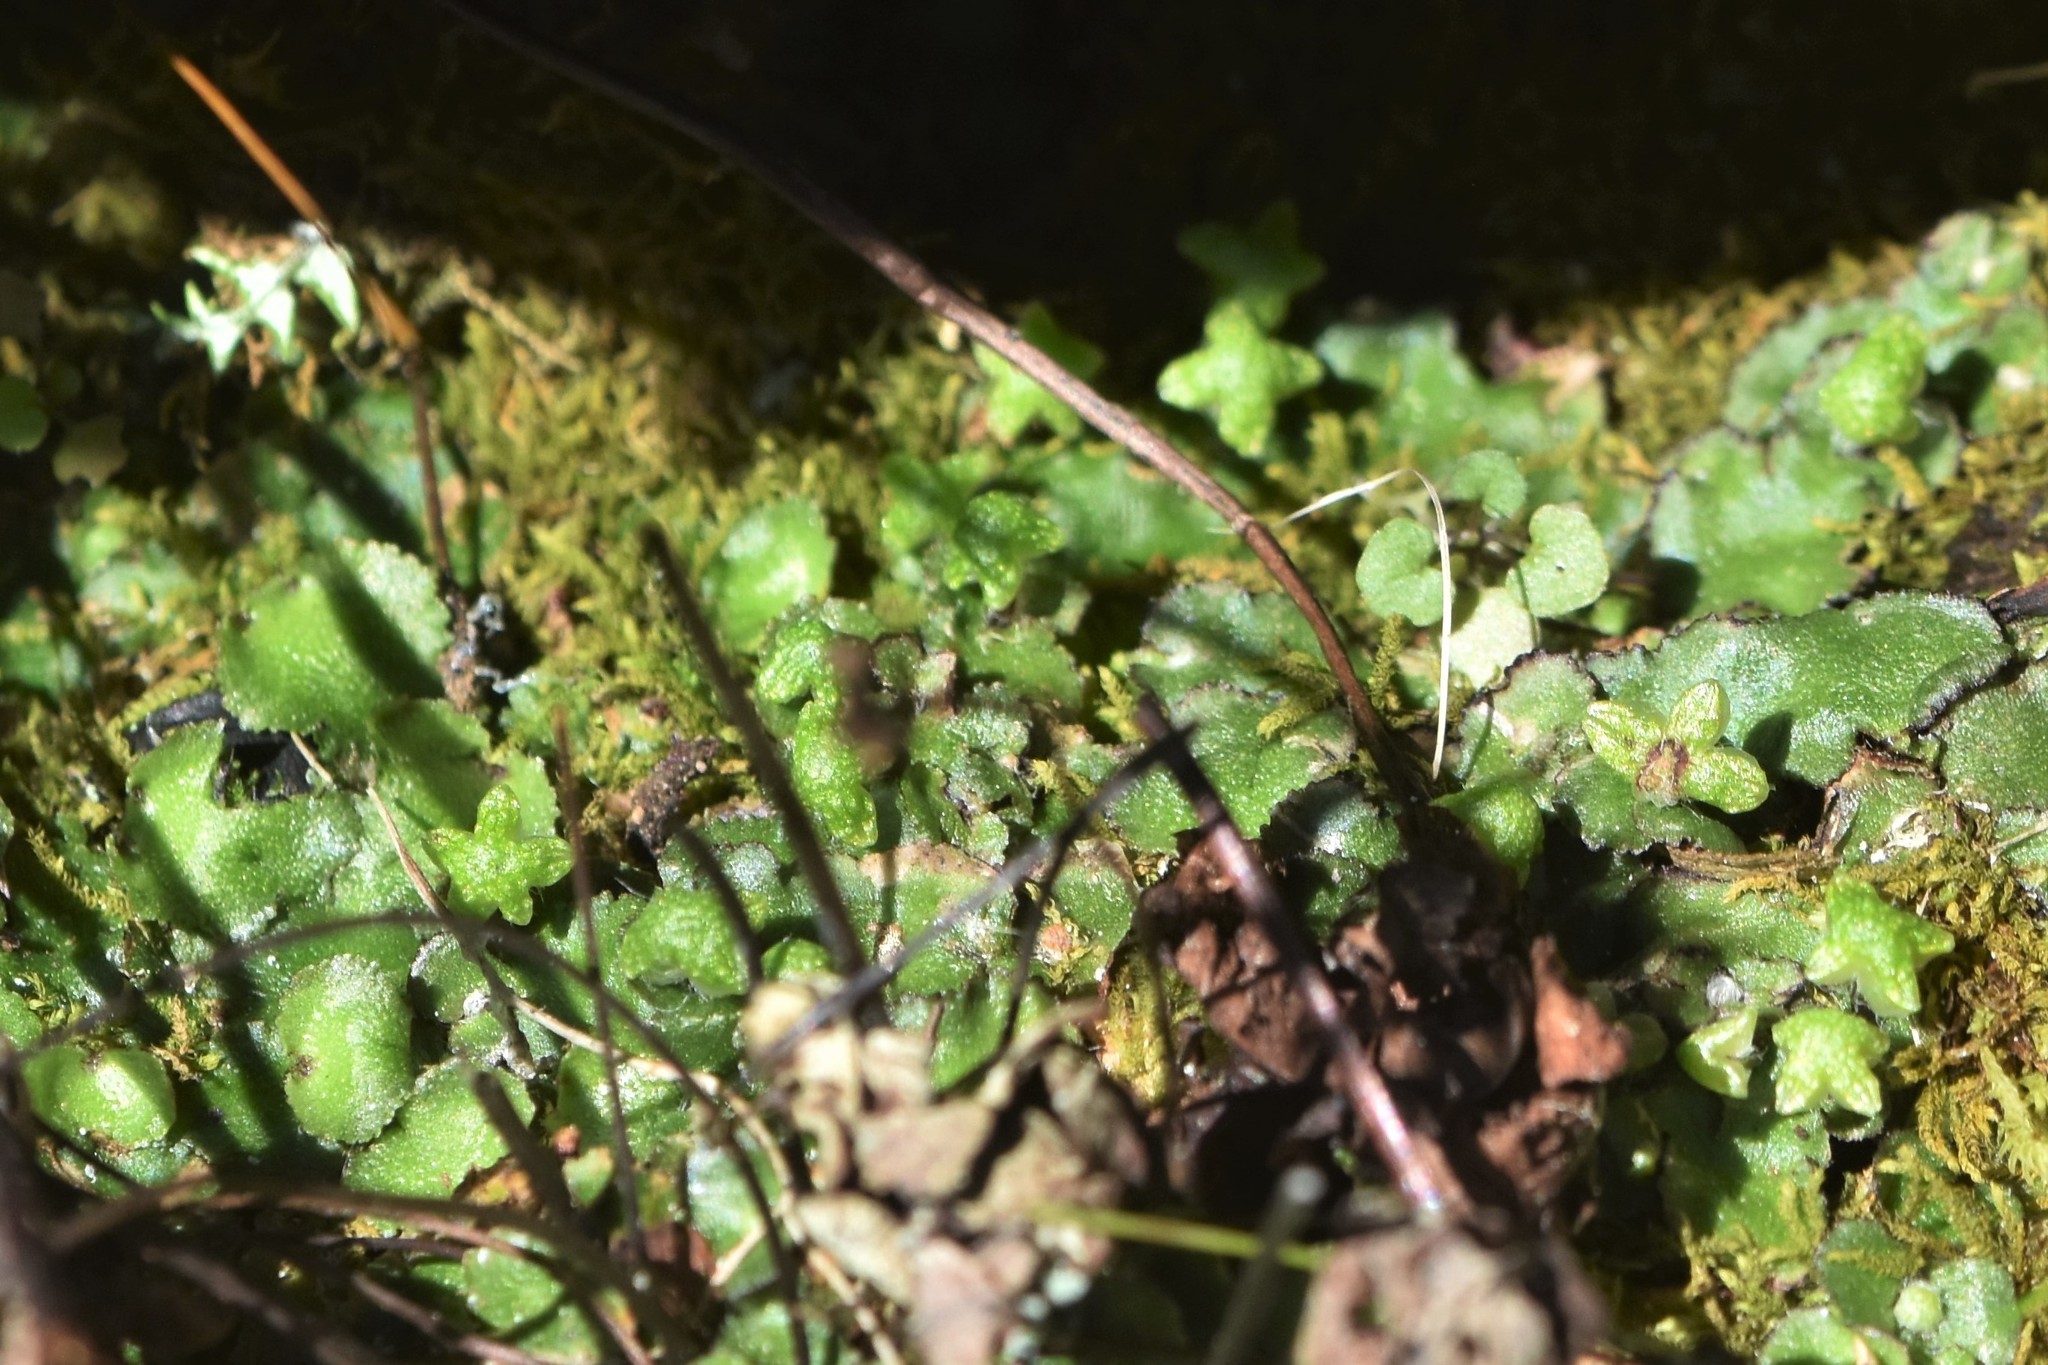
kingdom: Plantae
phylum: Marchantiophyta
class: Marchantiopsida
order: Marchantiales
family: Aytoniaceae
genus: Reboulia
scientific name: Reboulia hemisphaerica
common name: Purple-margined liverwort
